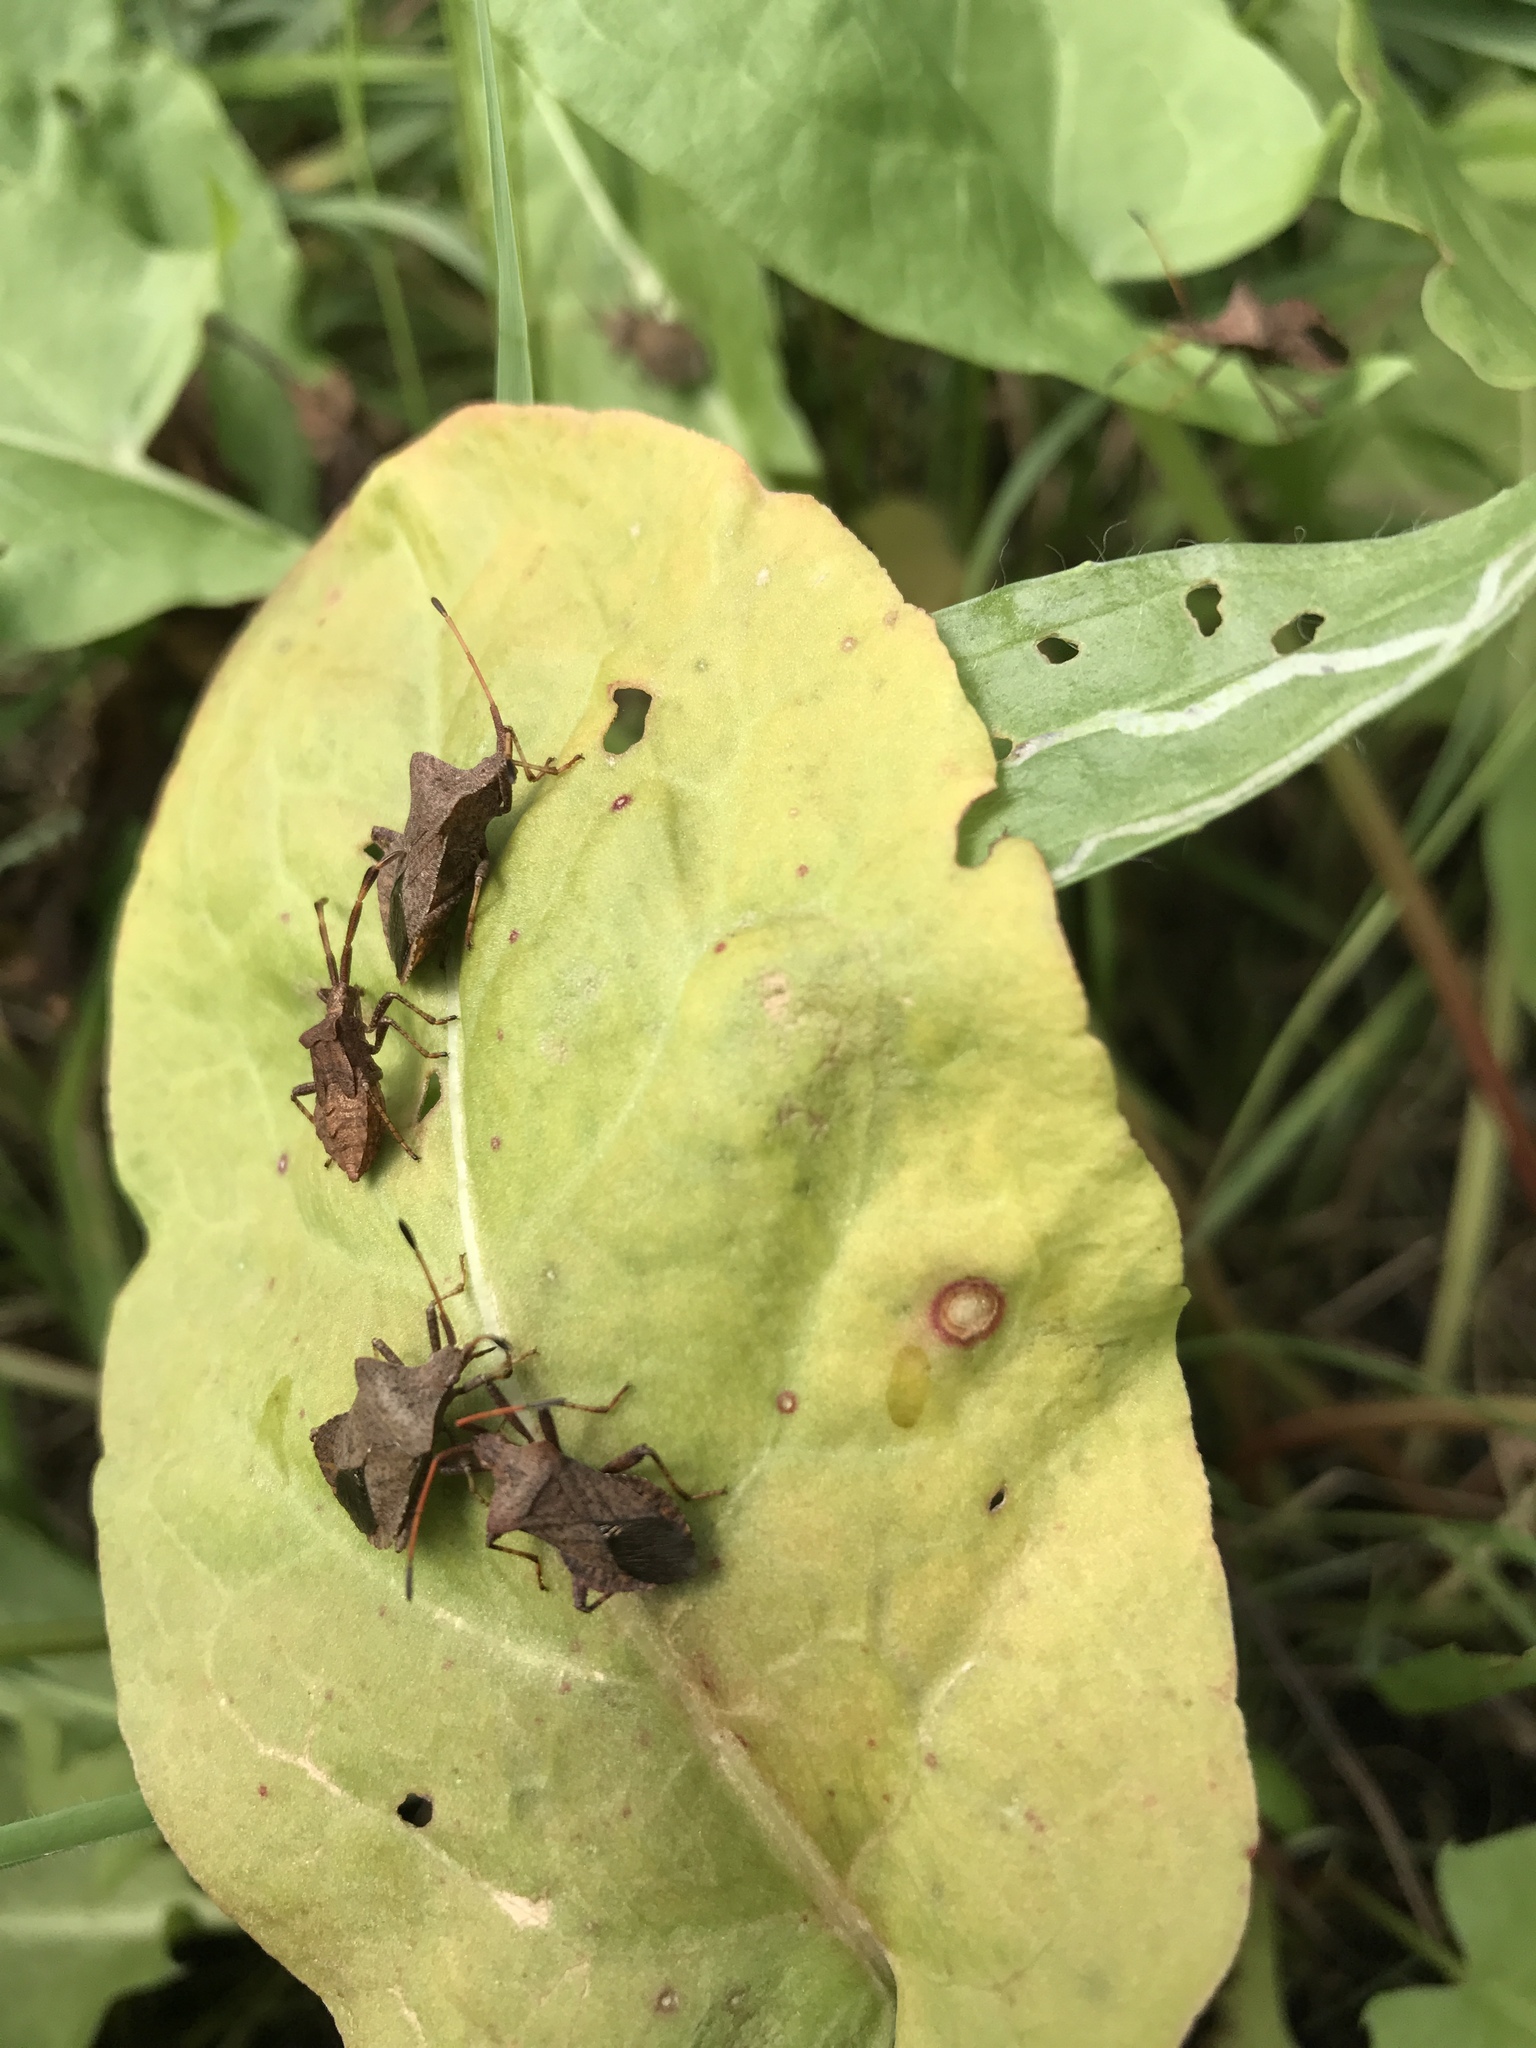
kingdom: Animalia
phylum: Arthropoda
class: Insecta
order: Hemiptera
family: Coreidae
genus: Coreus
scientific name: Coreus marginatus
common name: Dock bug
